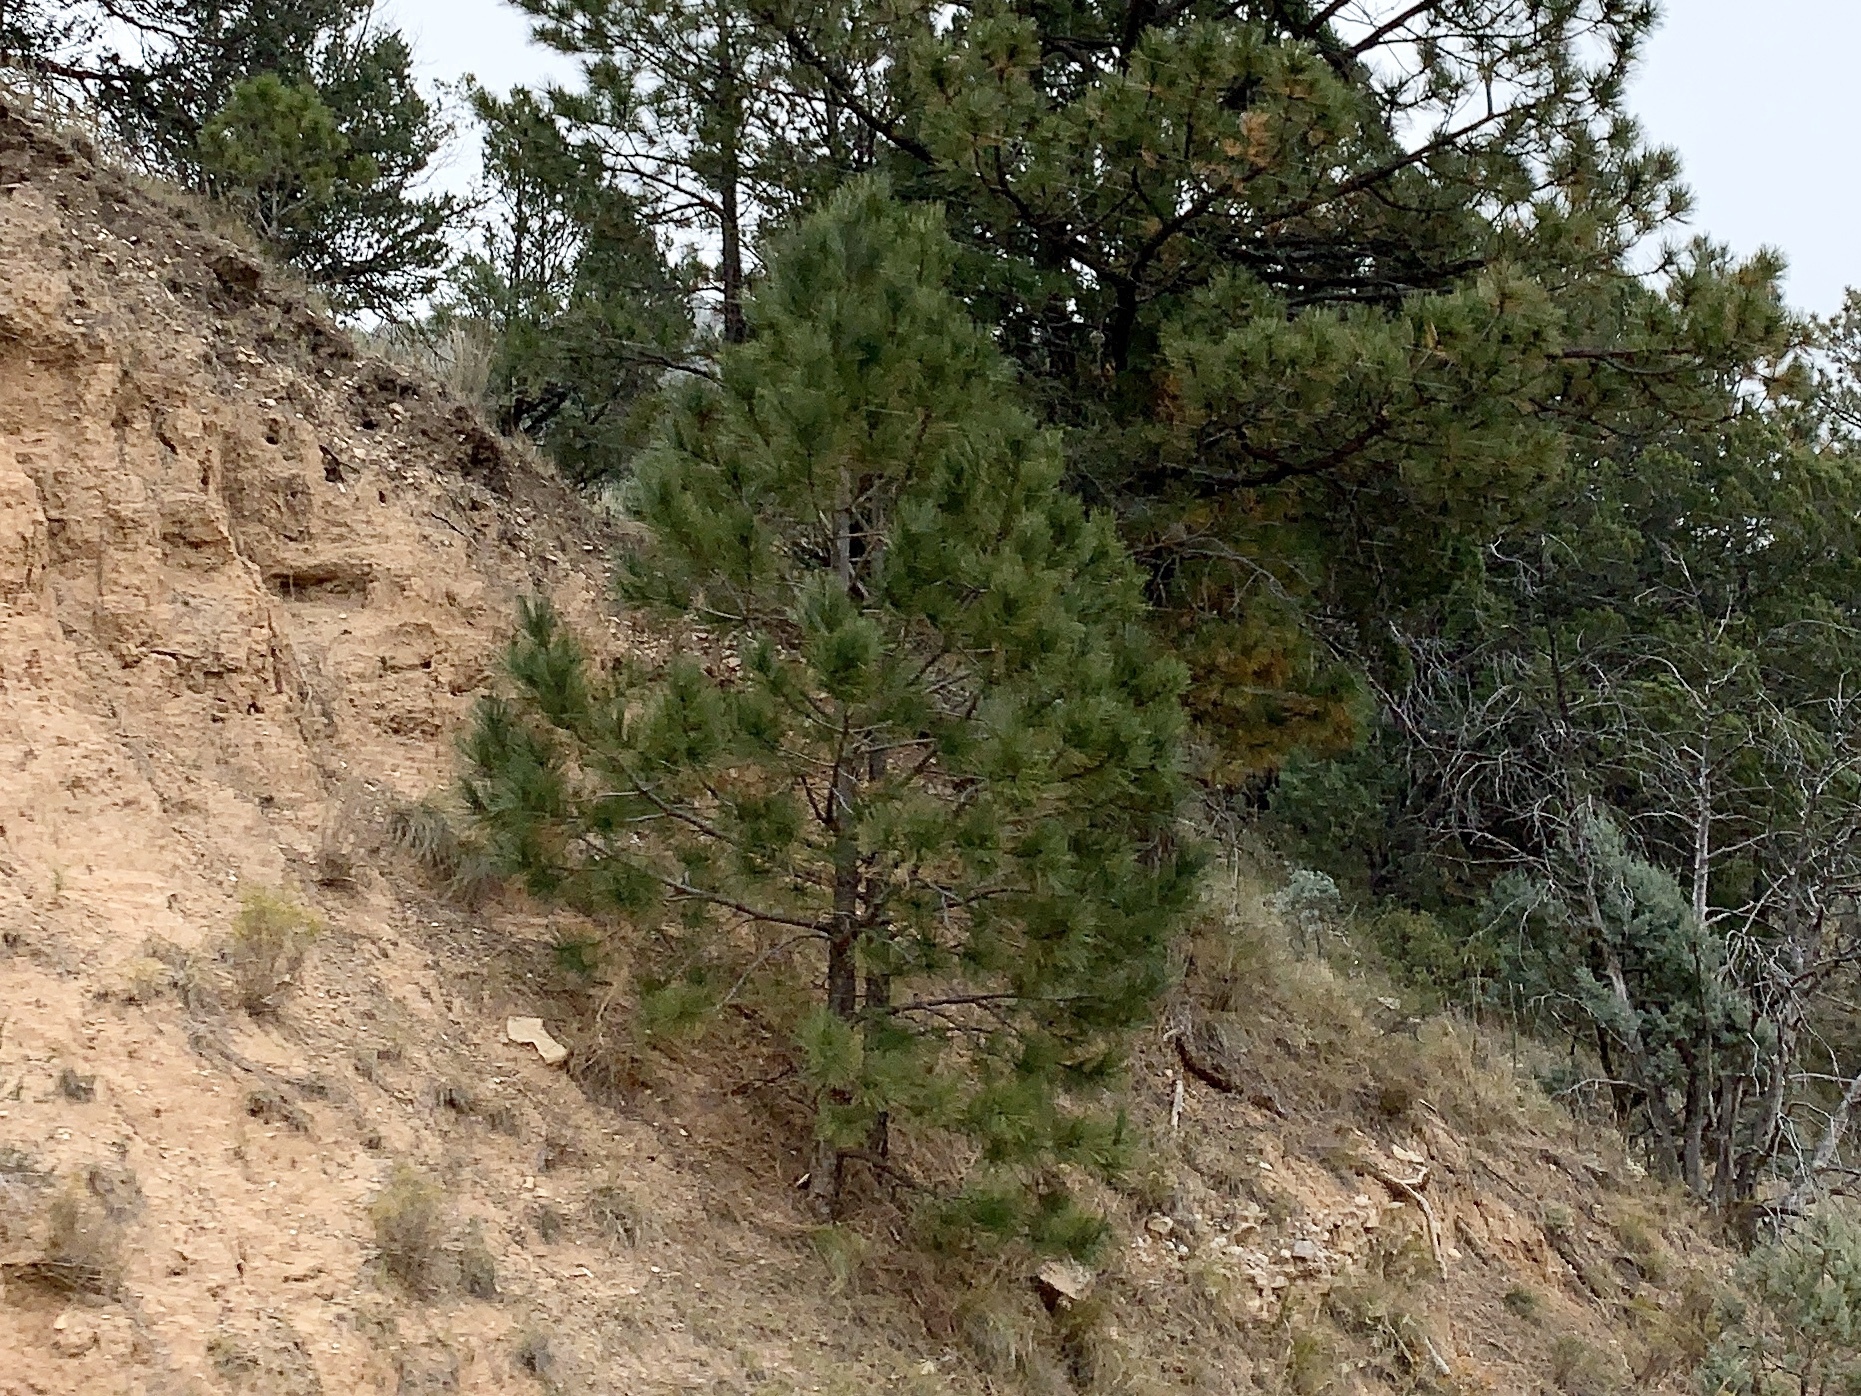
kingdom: Plantae
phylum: Tracheophyta
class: Pinopsida
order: Pinales
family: Pinaceae
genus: Pinus
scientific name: Pinus ponderosa
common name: Western yellow-pine
